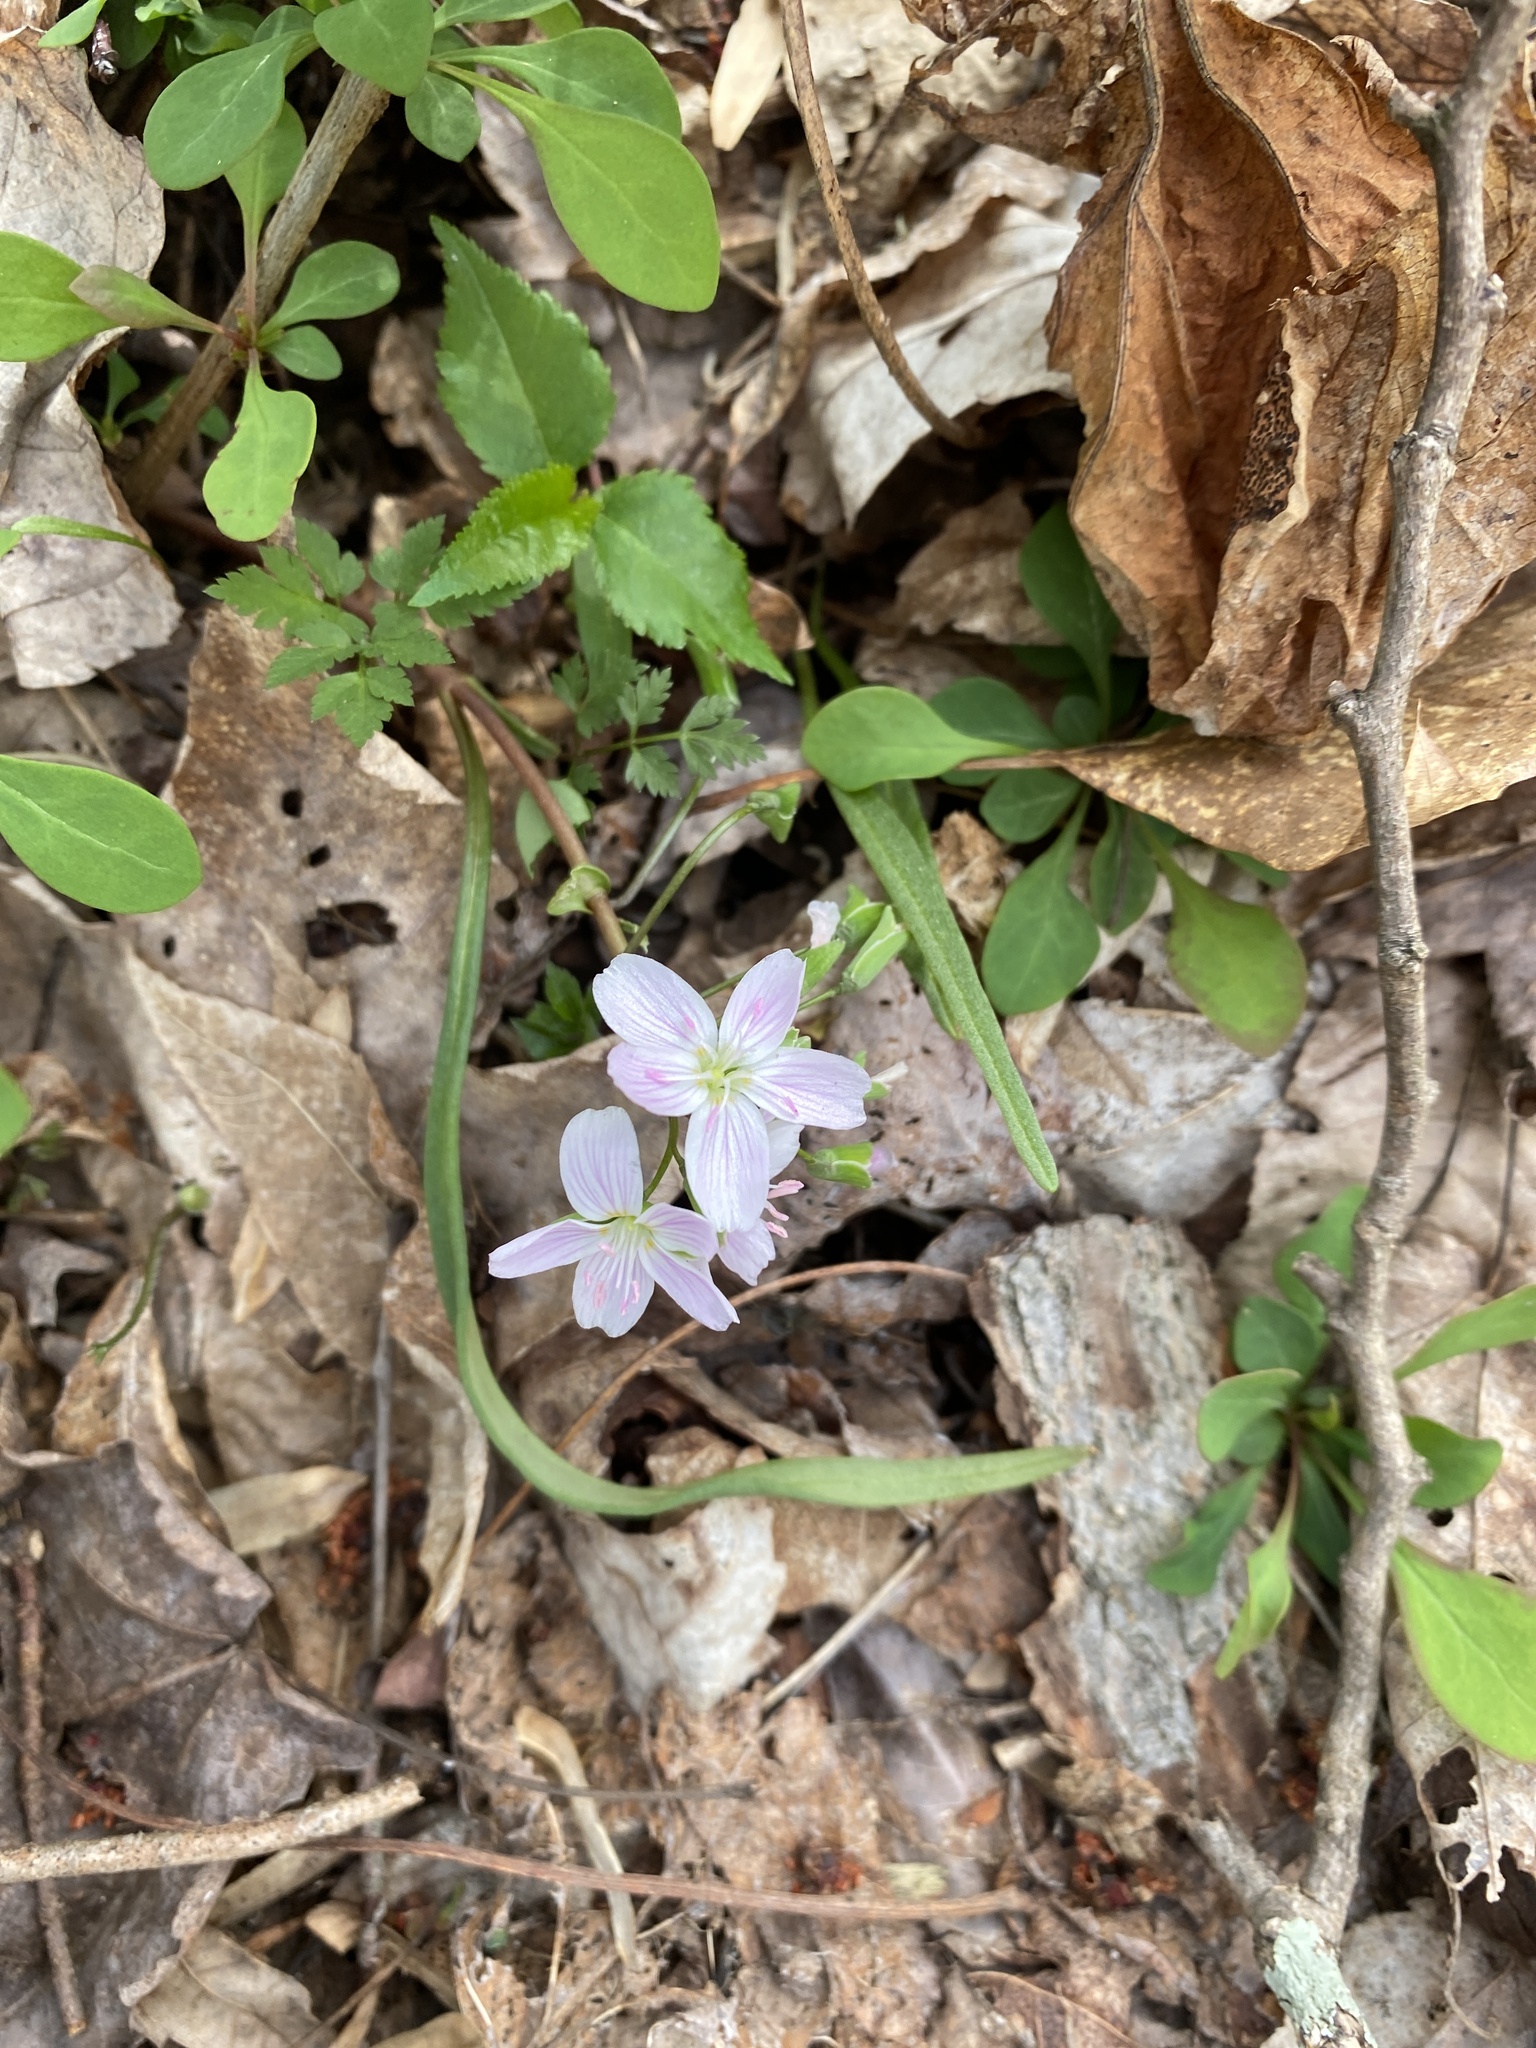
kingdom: Plantae
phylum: Tracheophyta
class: Magnoliopsida
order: Caryophyllales
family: Montiaceae
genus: Claytonia
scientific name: Claytonia virginica
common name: Virginia springbeauty
